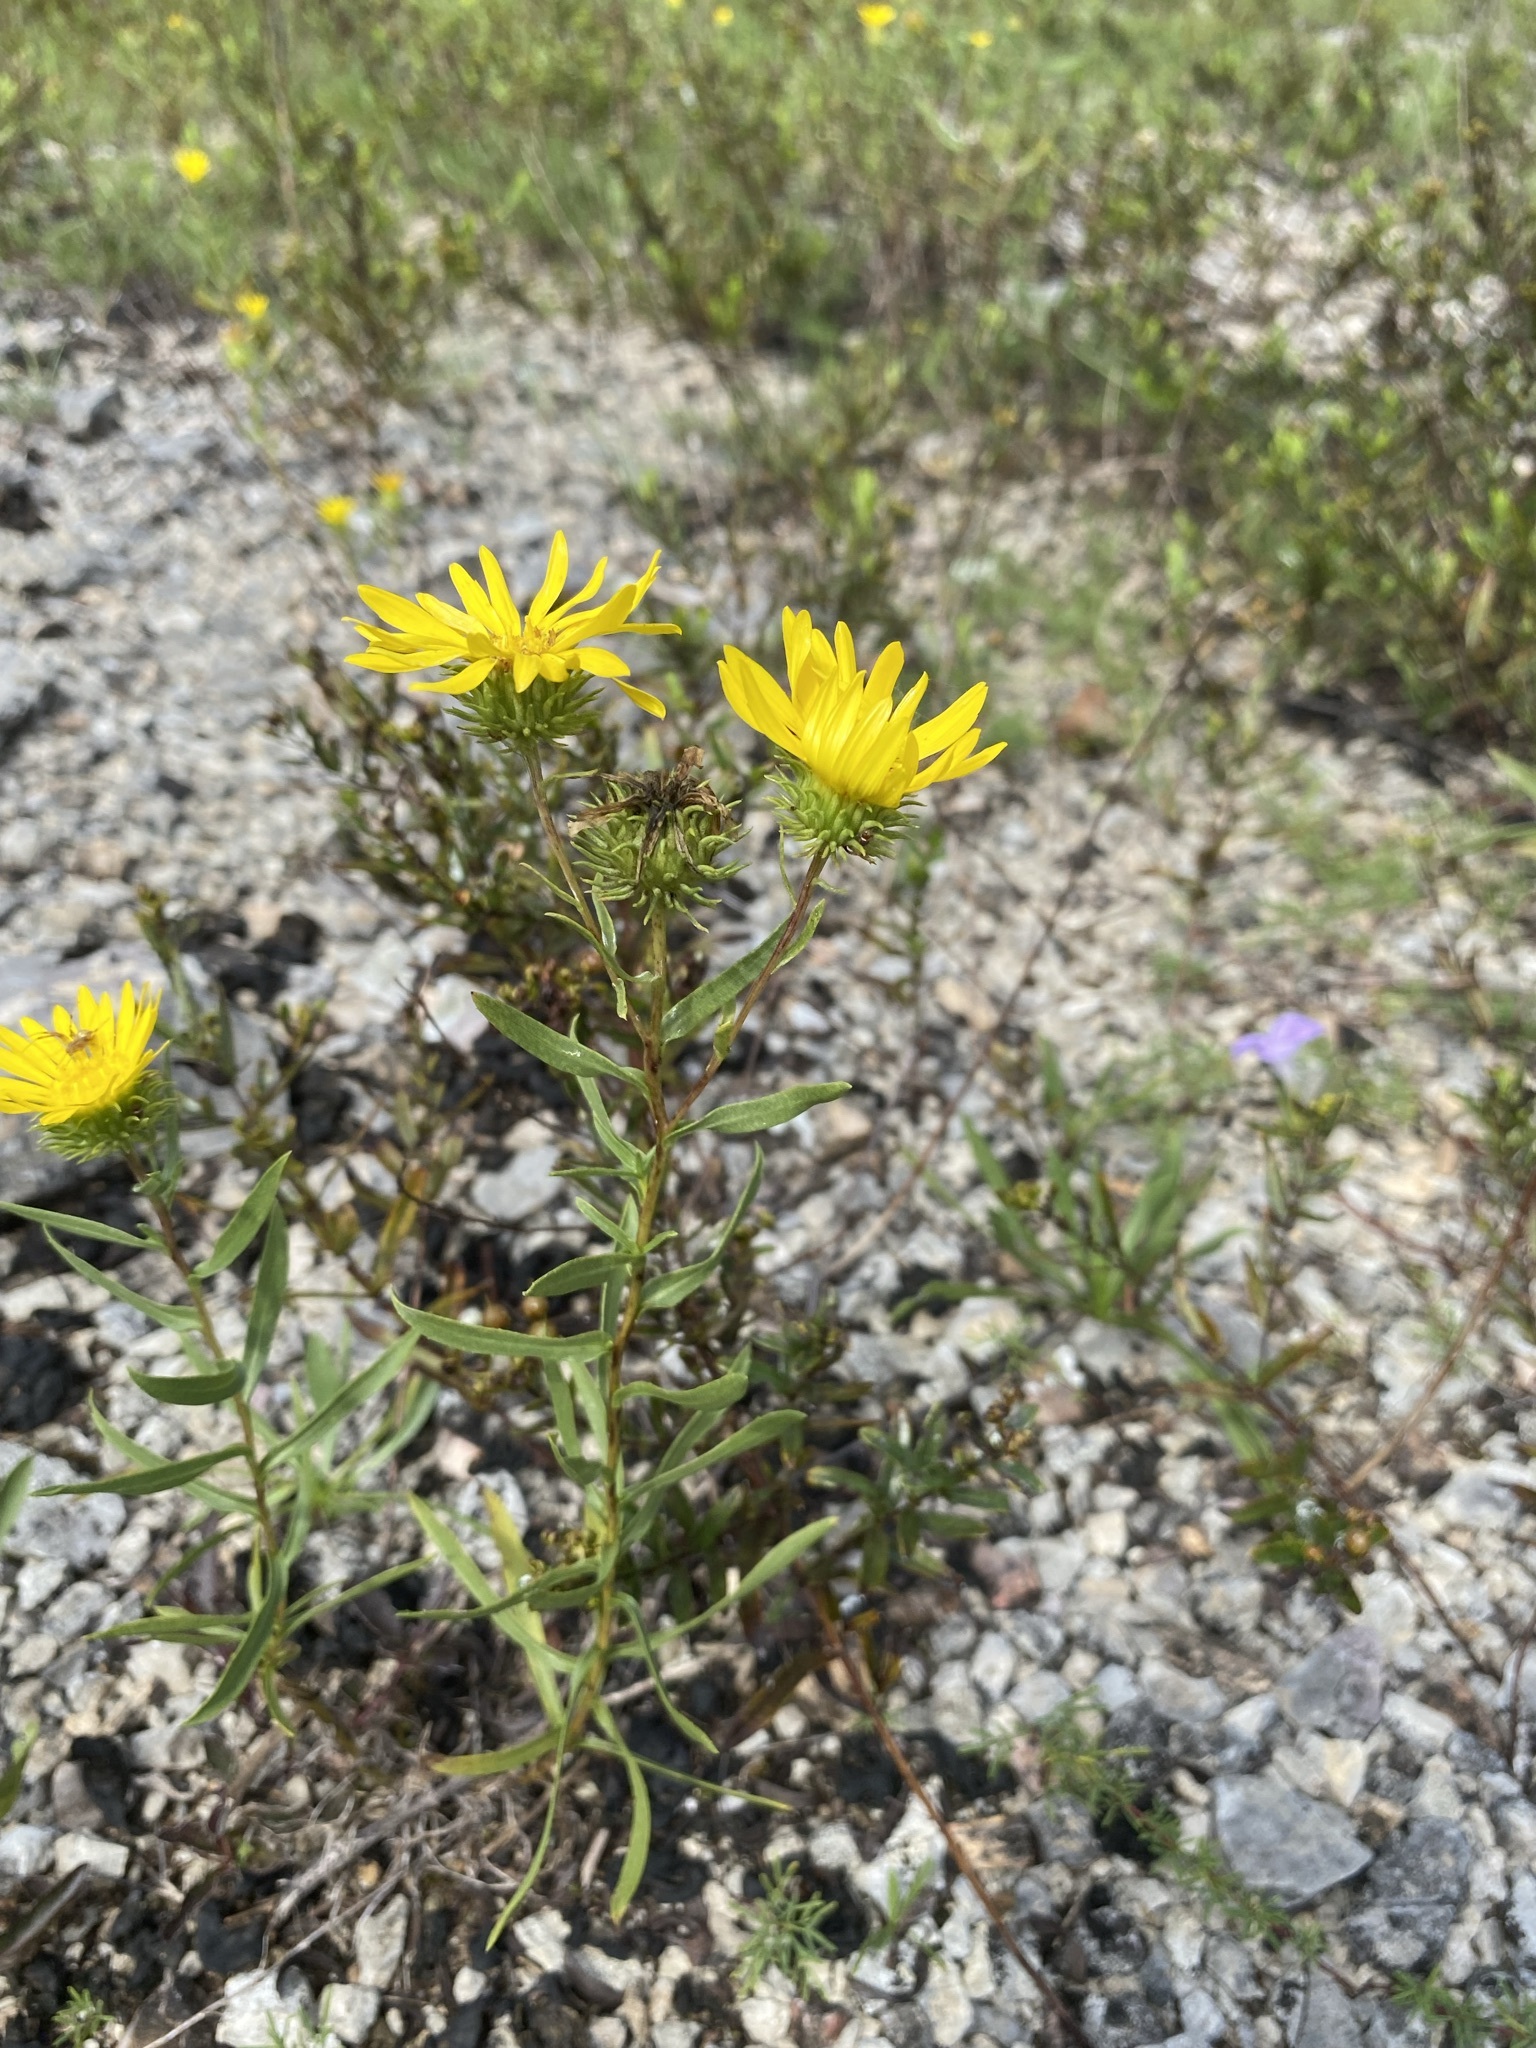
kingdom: Plantae
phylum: Tracheophyta
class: Magnoliopsida
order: Asterales
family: Asteraceae
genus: Grindelia
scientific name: Grindelia lanceolata
